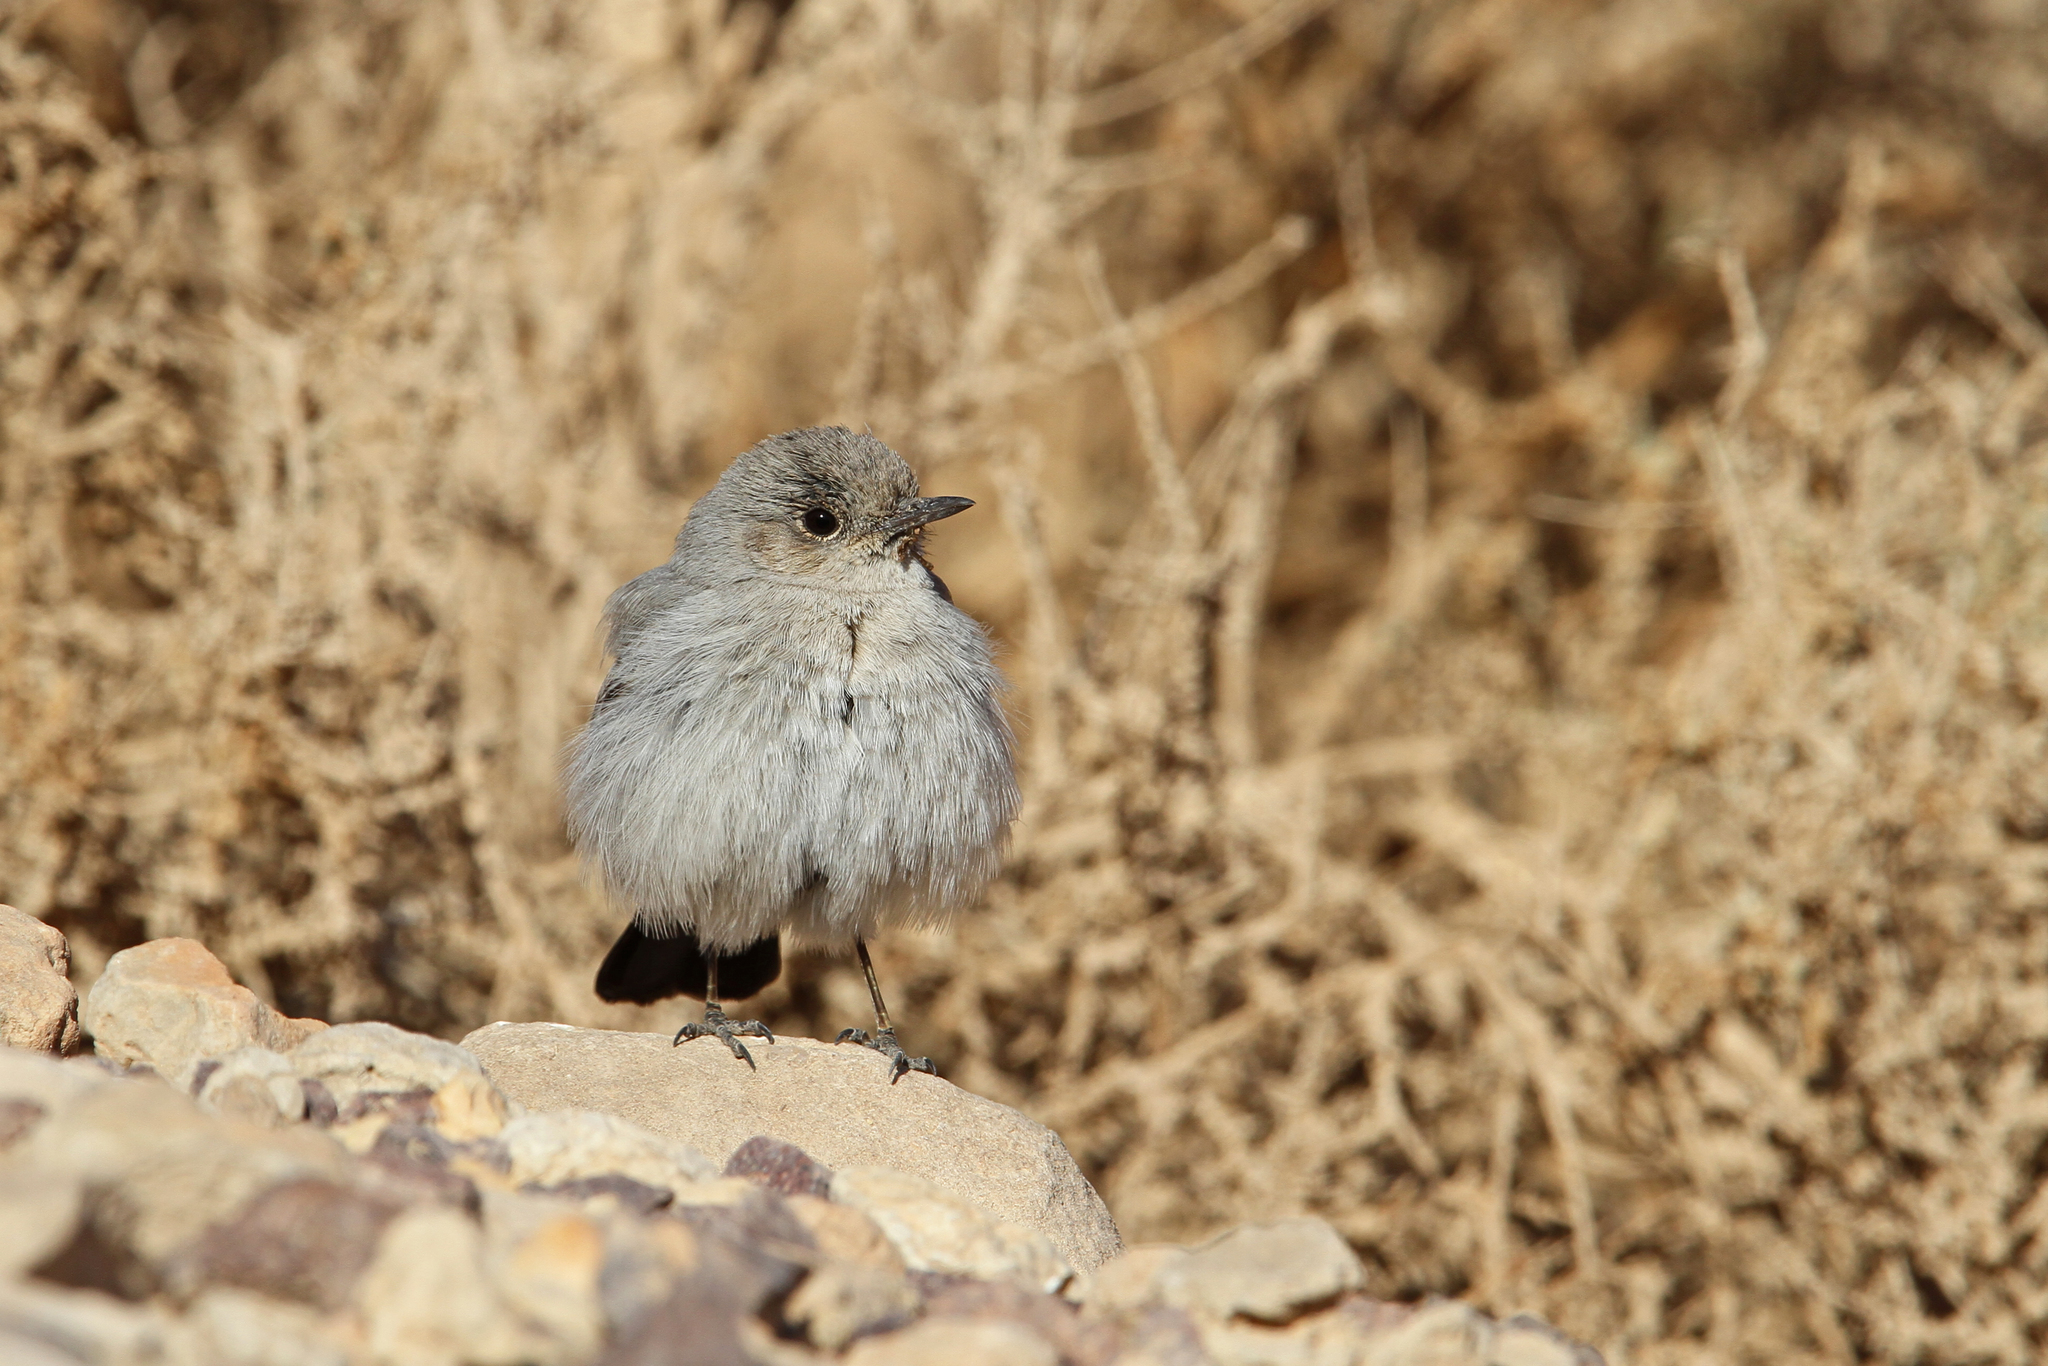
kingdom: Animalia
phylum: Chordata
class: Aves
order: Passeriformes
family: Muscicapidae
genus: Oenanthe
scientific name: Oenanthe melanura
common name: Blackstart
